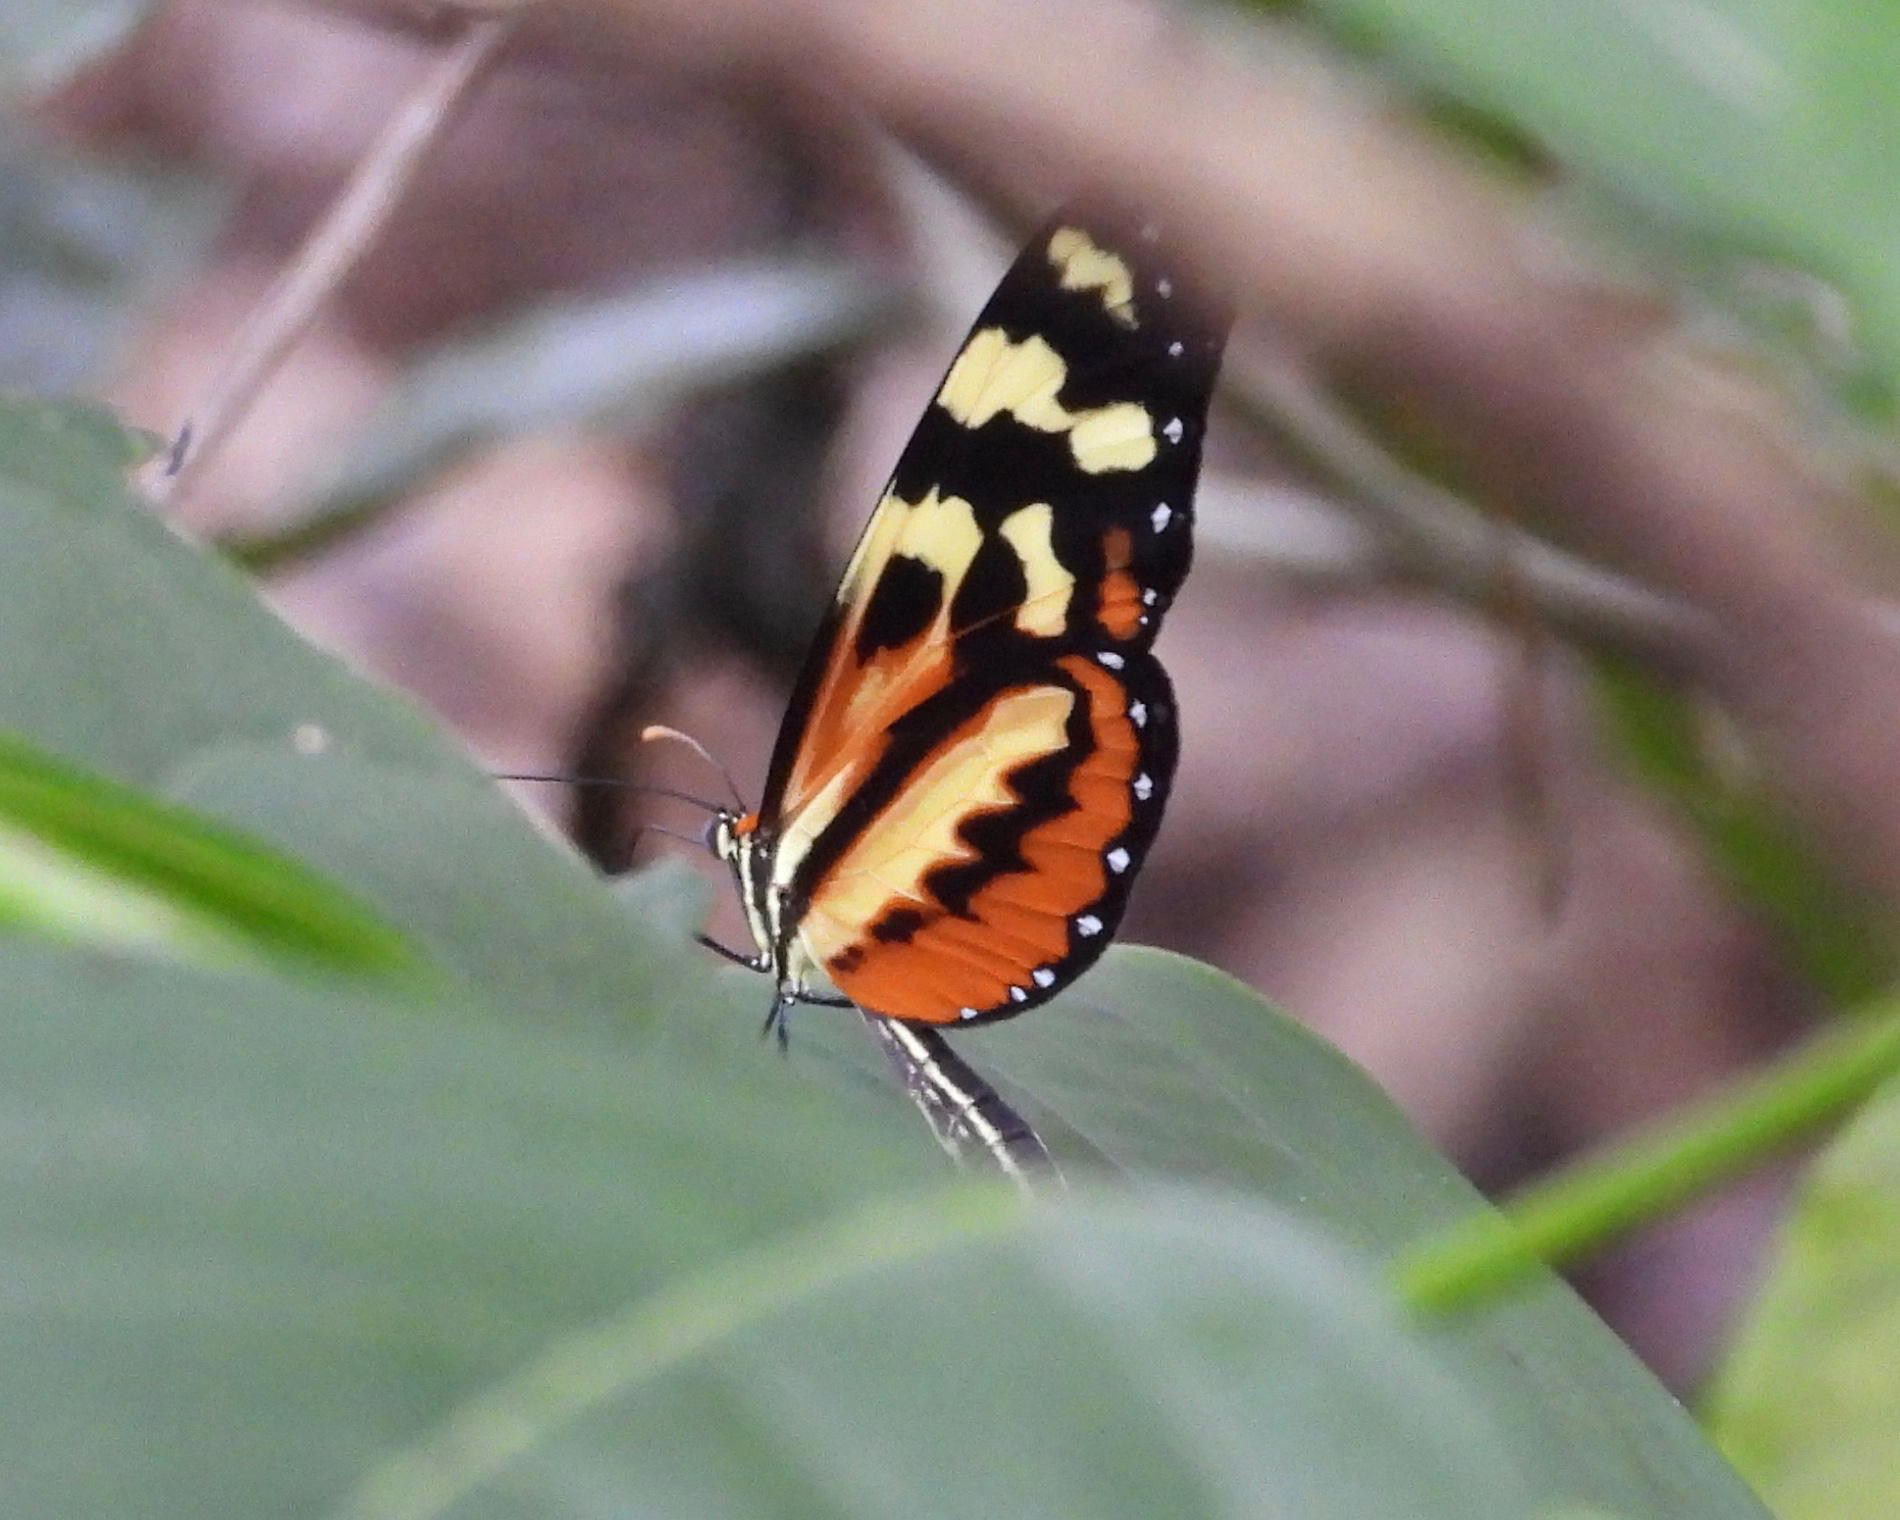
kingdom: Animalia
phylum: Arthropoda
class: Insecta
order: Lepidoptera
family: Nymphalidae
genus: Mechanitis
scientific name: Mechanitis polymnia
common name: Disturbed tigerwing
